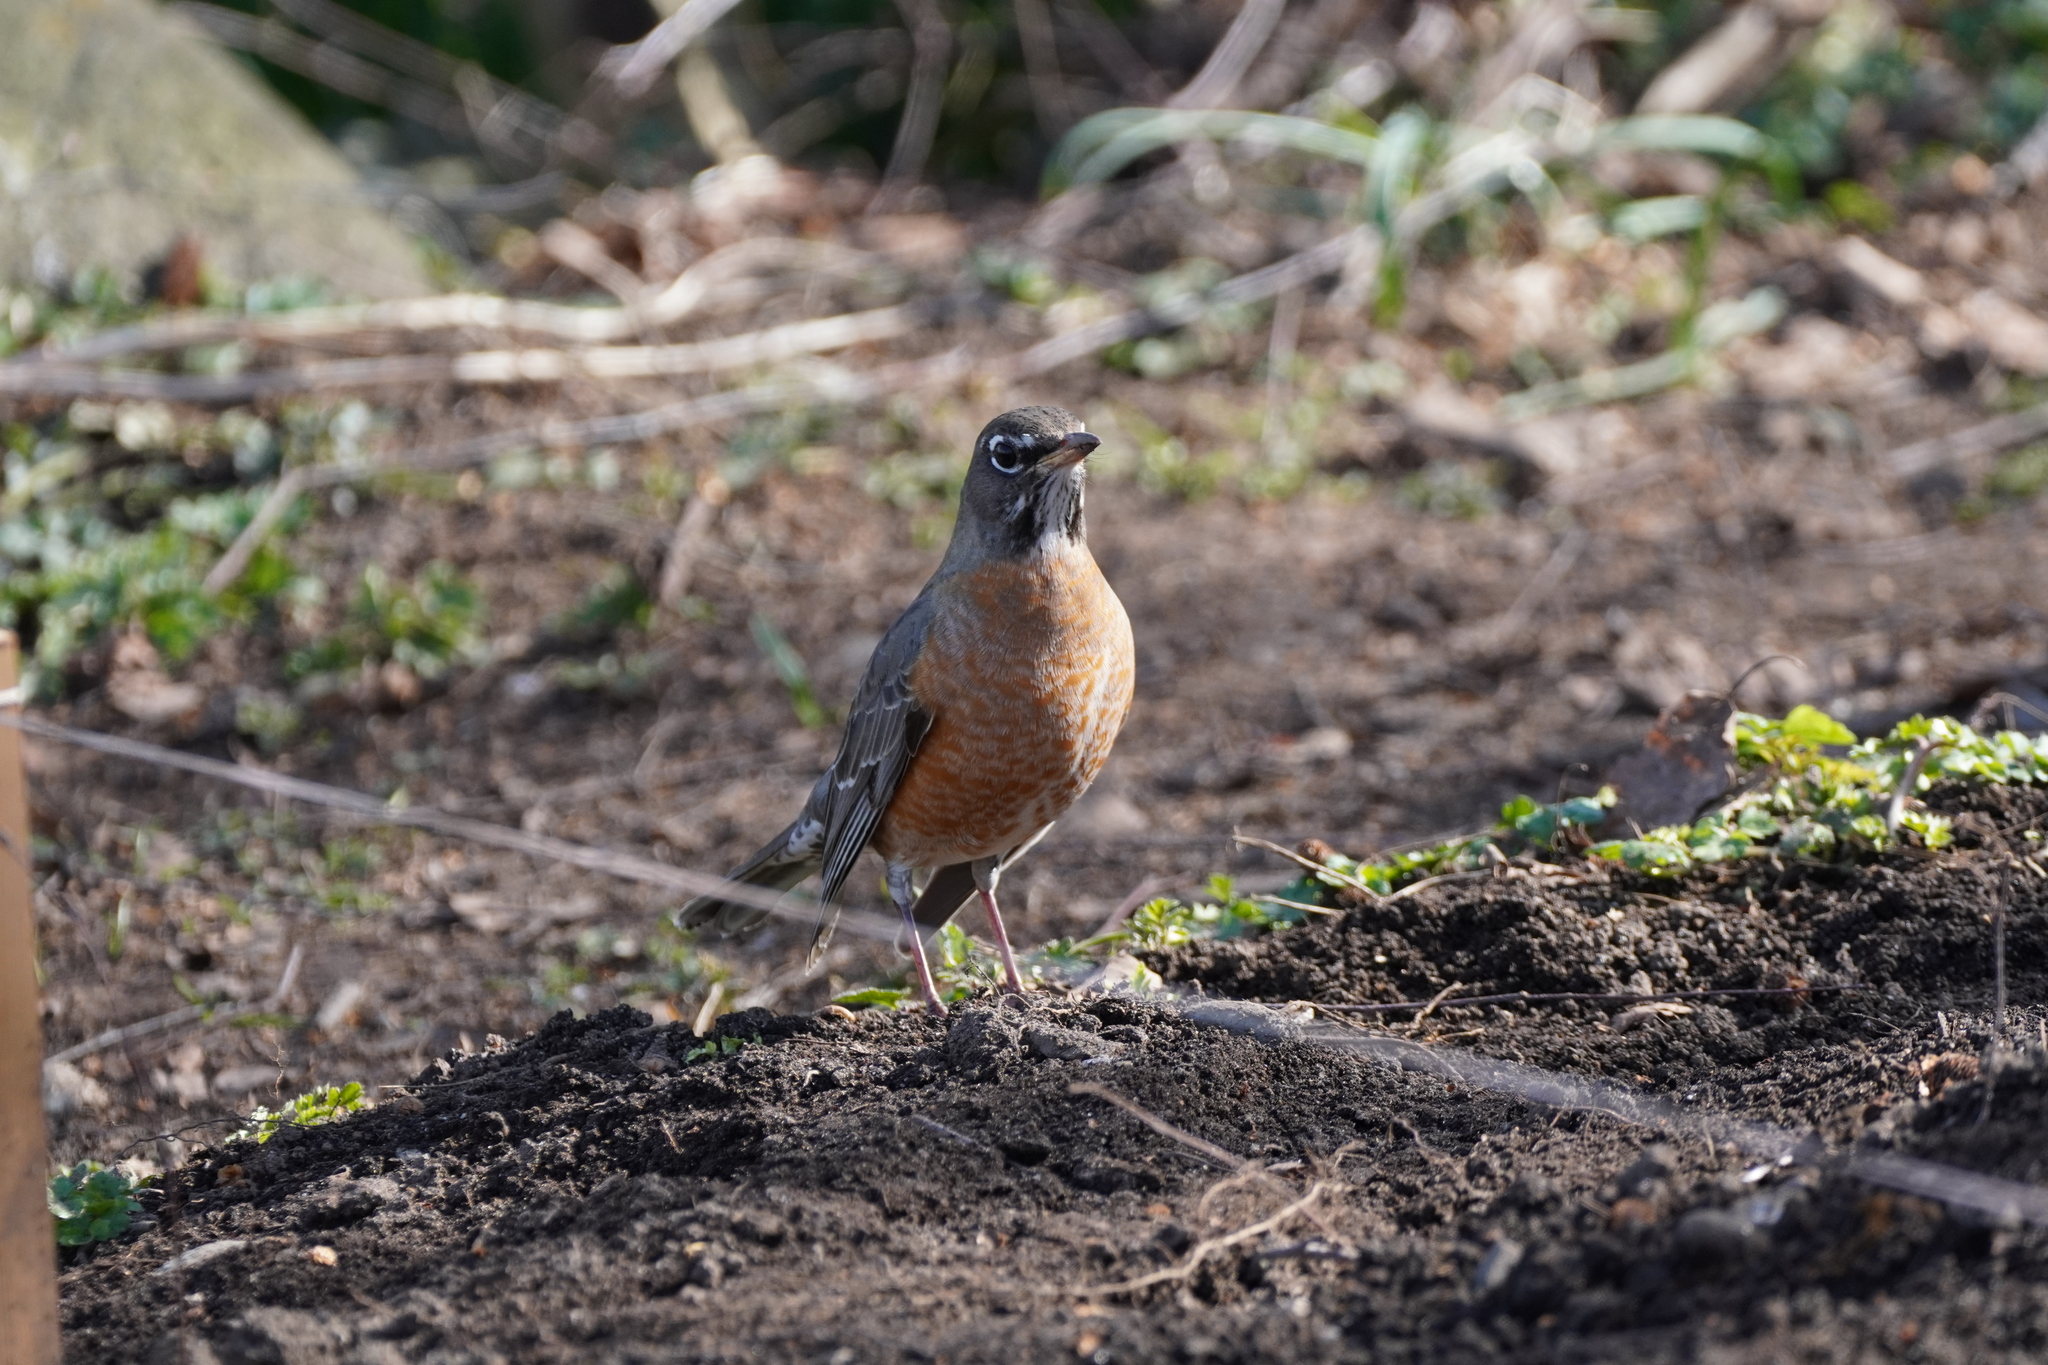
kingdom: Animalia
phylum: Chordata
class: Aves
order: Passeriformes
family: Turdidae
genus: Turdus
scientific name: Turdus migratorius
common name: American robin
